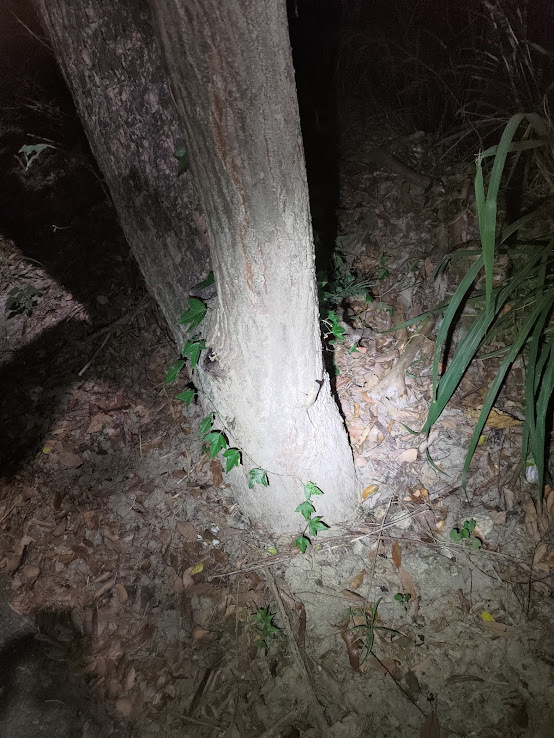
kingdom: Animalia
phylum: Chordata
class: Squamata
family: Agamidae
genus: Diploderma
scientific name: Diploderma swinhonis
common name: Taiwan japalure
